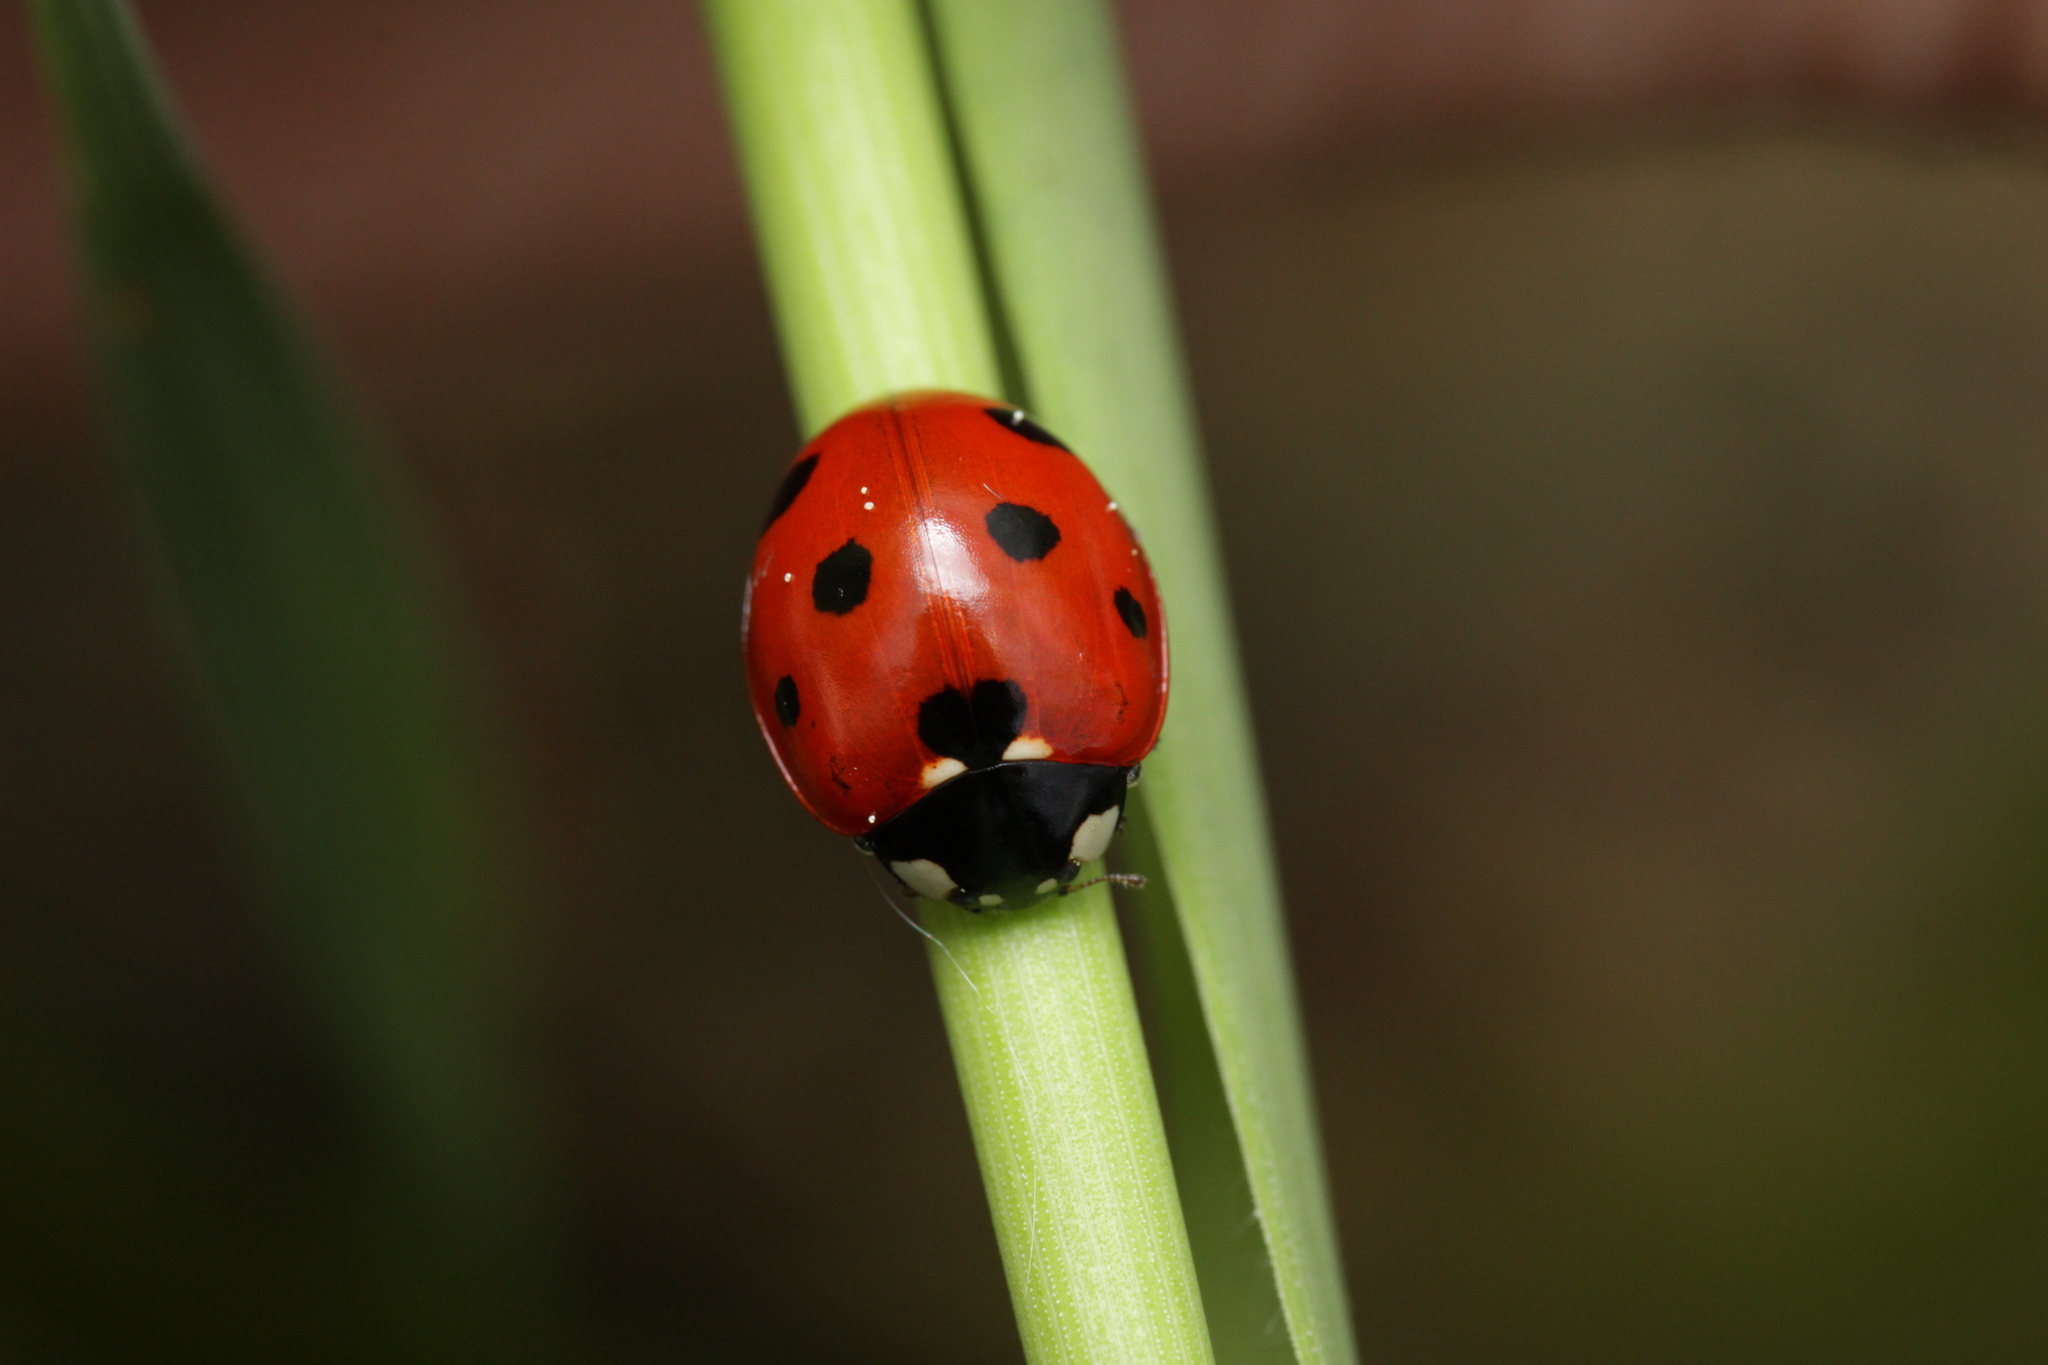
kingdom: Animalia
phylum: Arthropoda
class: Insecta
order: Coleoptera
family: Coccinellidae
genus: Coccinella
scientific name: Coccinella septempunctata
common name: Sevenspotted lady beetle
